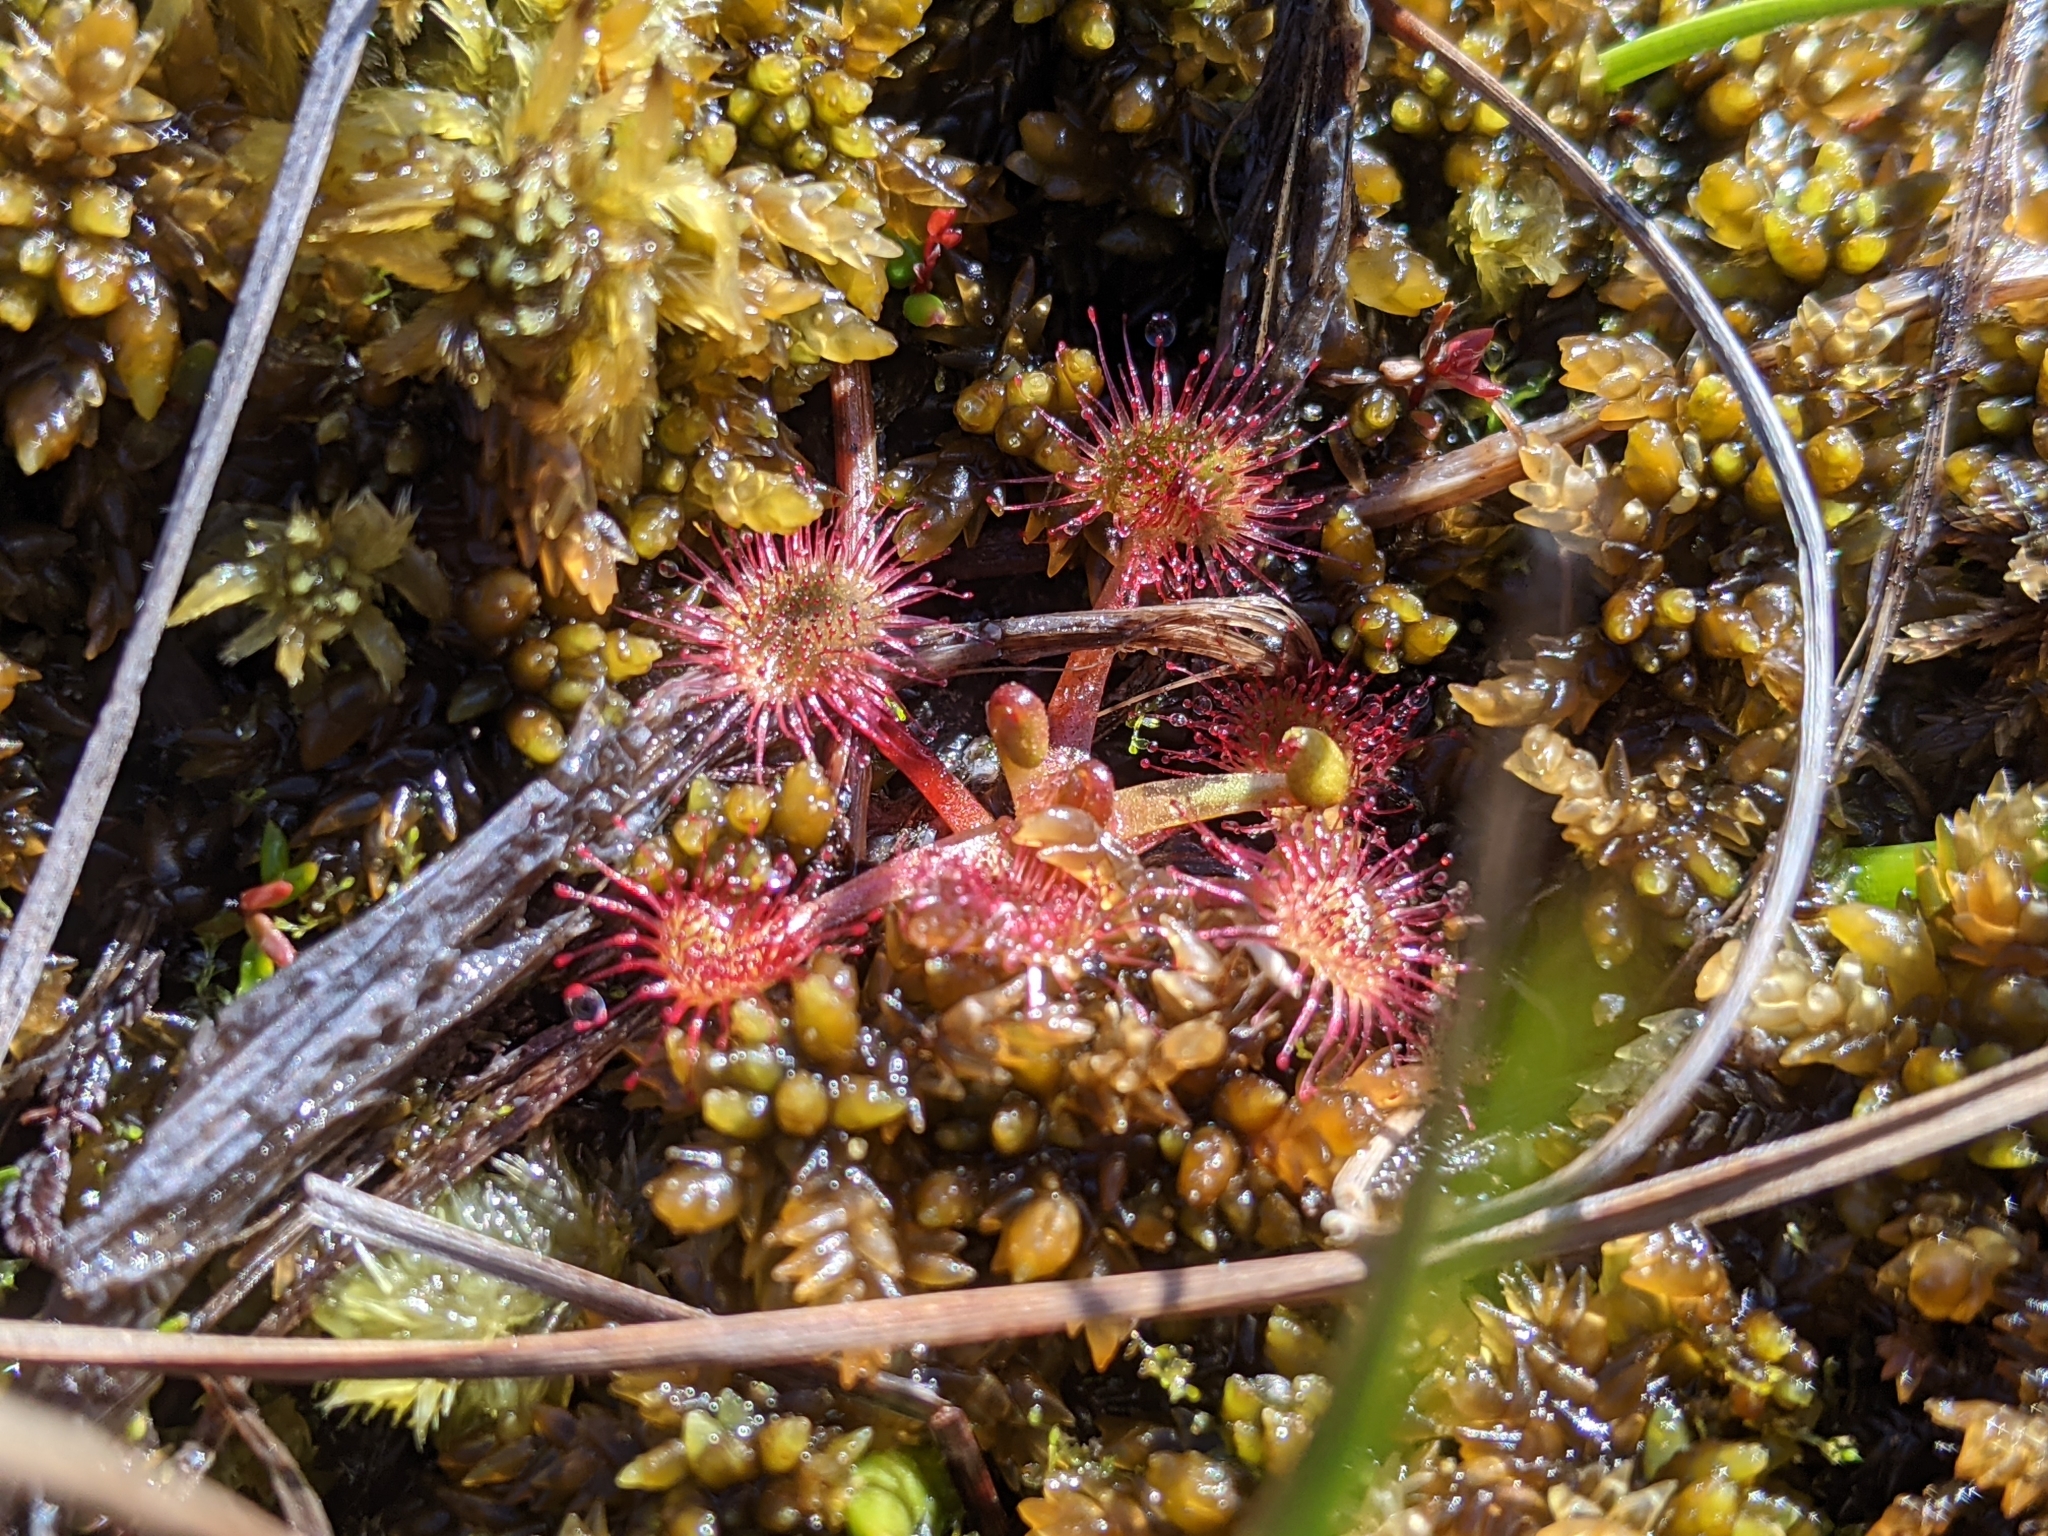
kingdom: Plantae
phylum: Tracheophyta
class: Magnoliopsida
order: Caryophyllales
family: Droseraceae
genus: Drosera
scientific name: Drosera rotundifolia
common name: Round-leaved sundew
